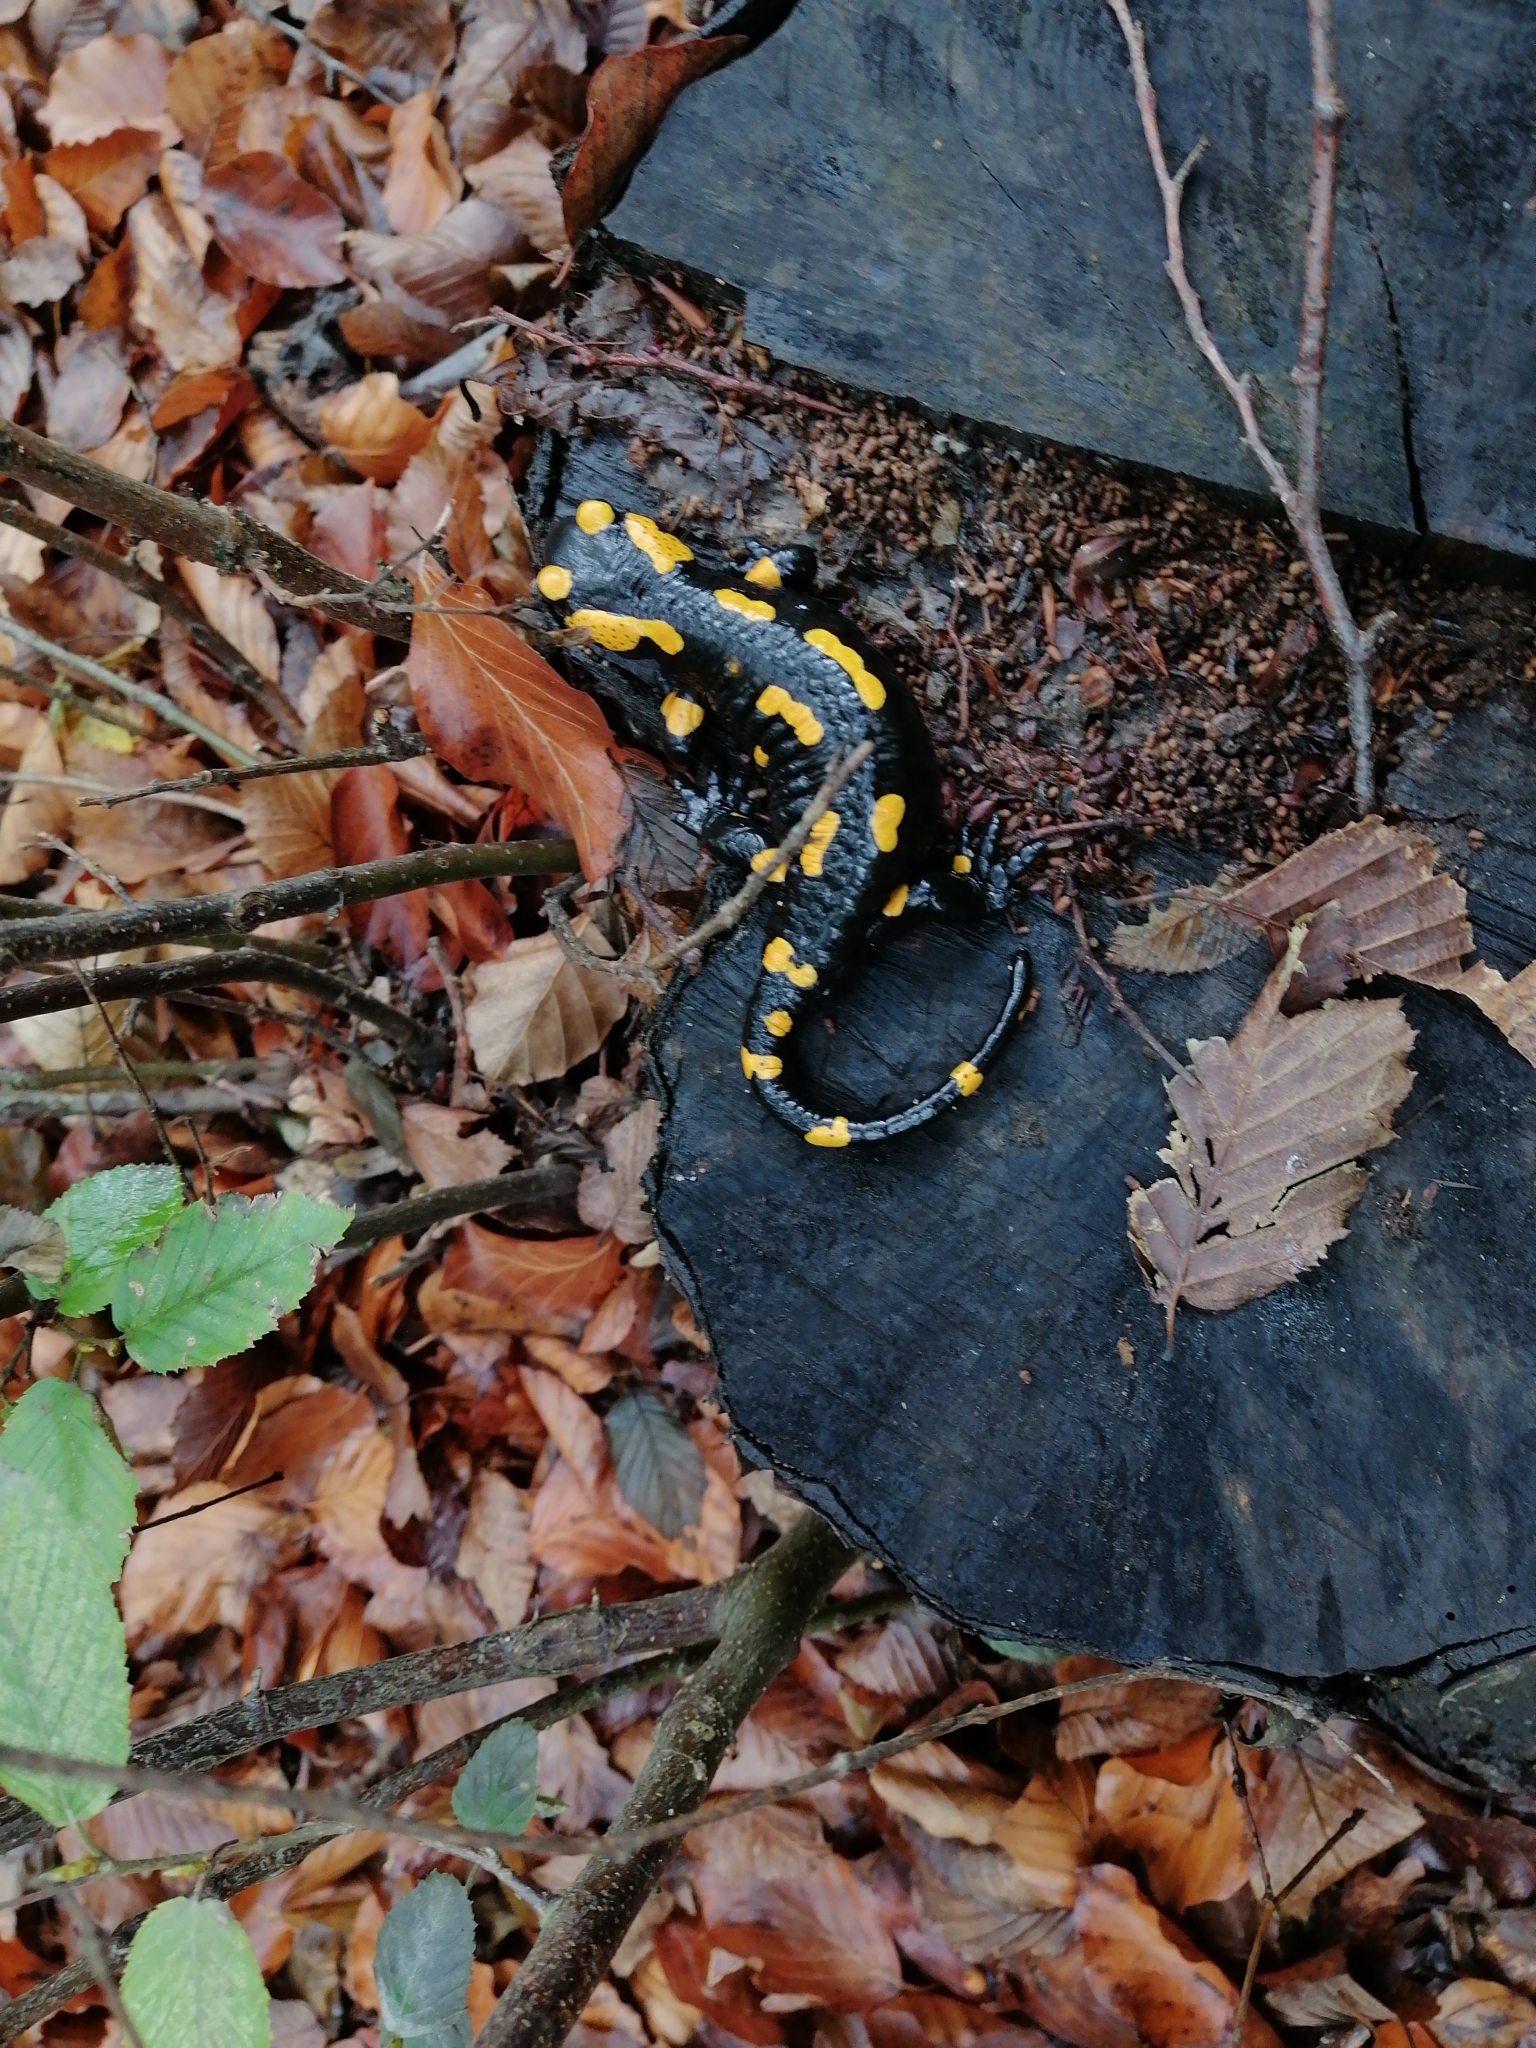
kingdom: Animalia
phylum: Chordata
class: Amphibia
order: Caudata
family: Salamandridae
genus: Salamandra
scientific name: Salamandra salamandra
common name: Fire salamander
